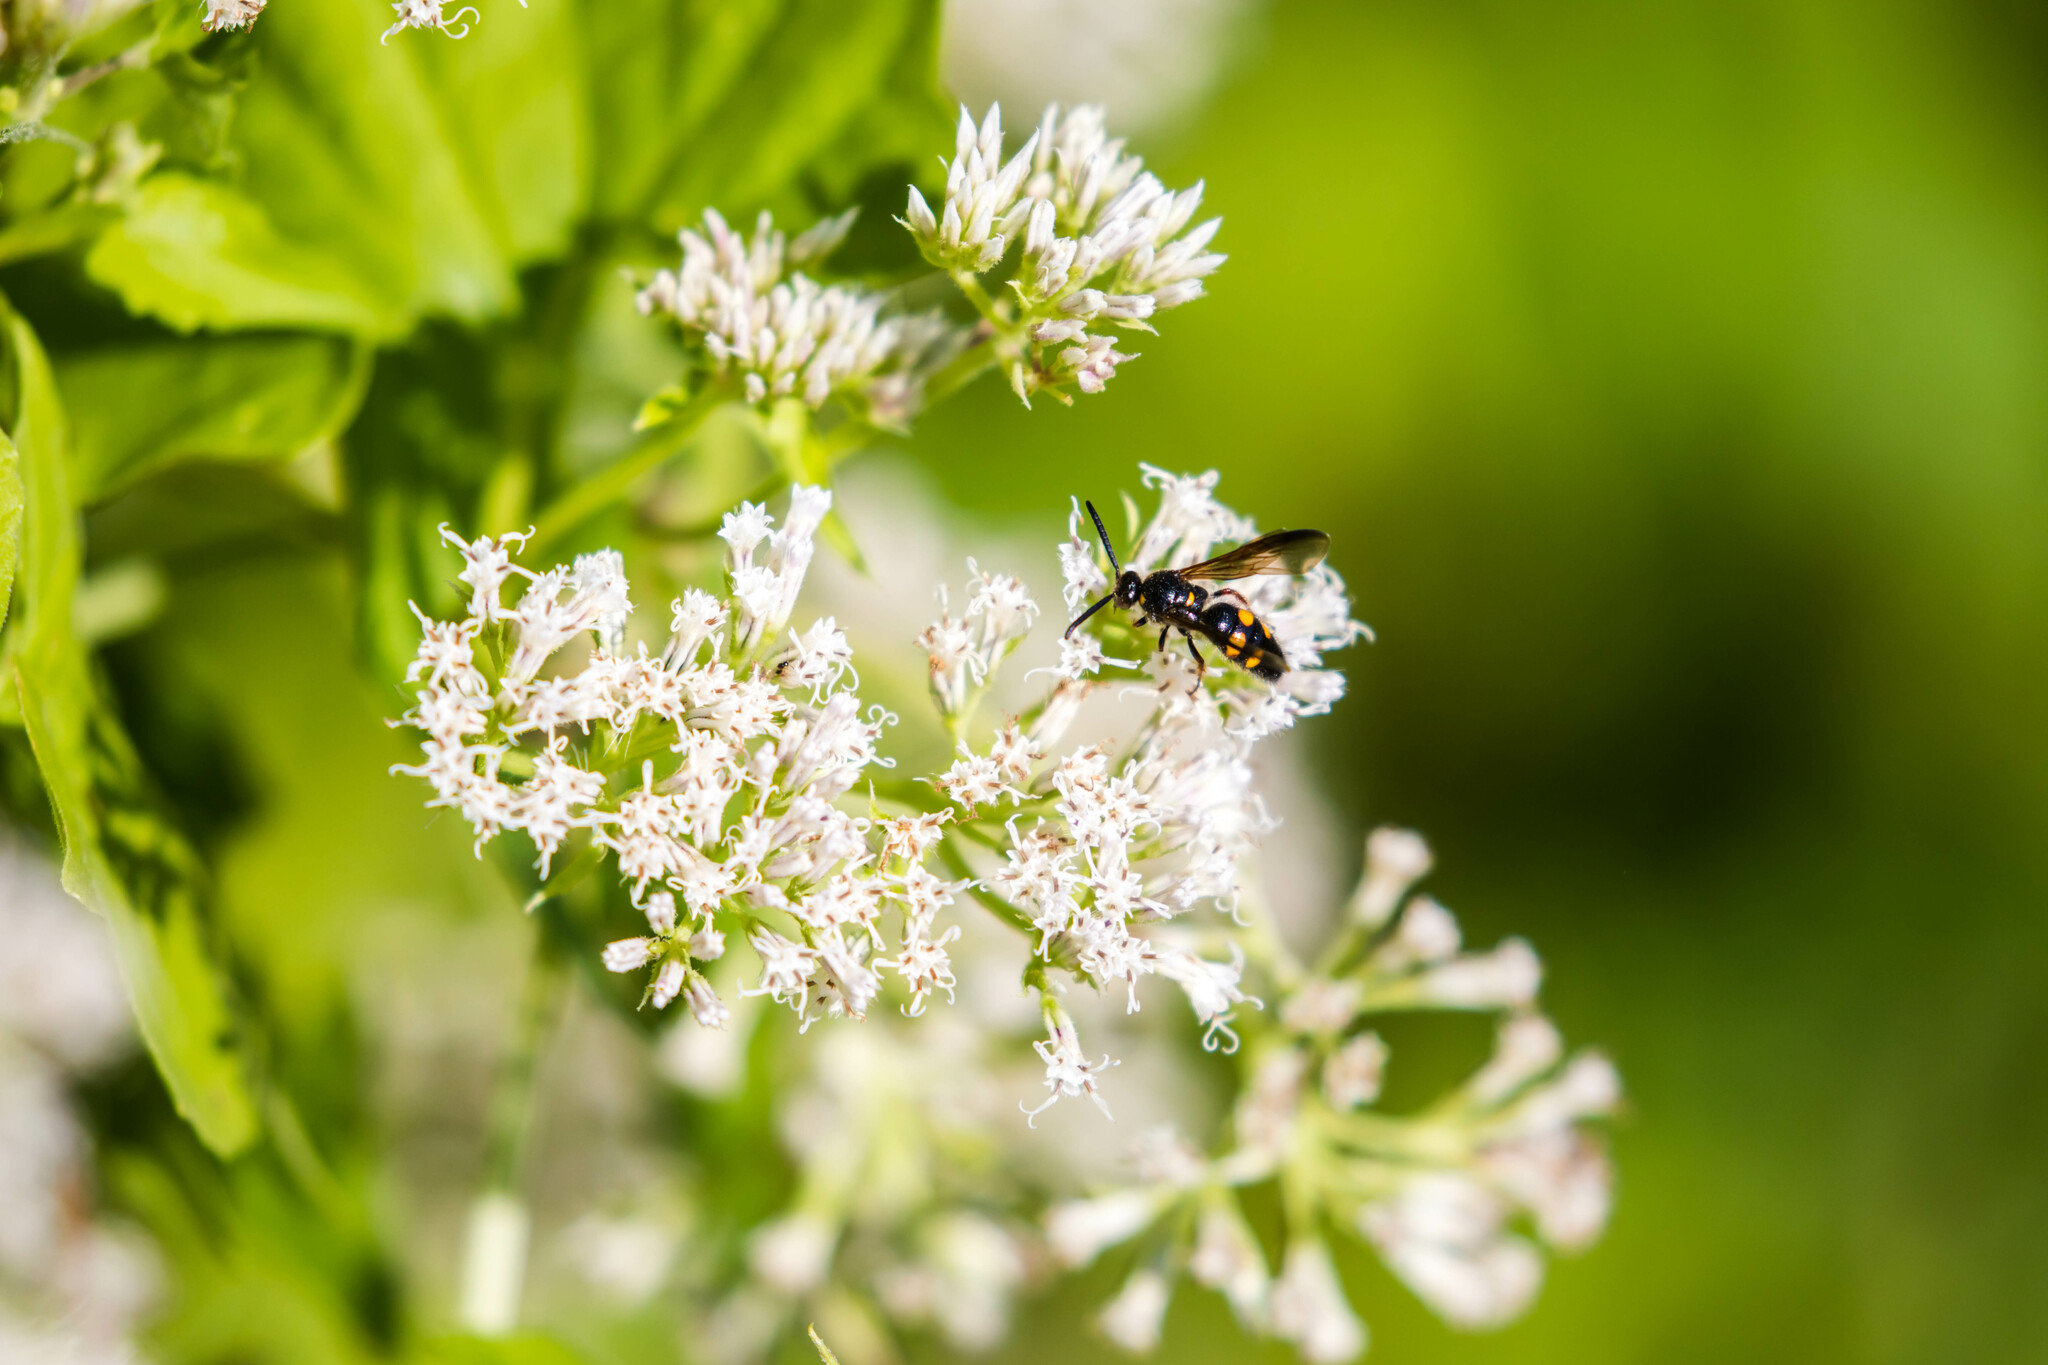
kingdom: Animalia
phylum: Arthropoda
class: Insecta
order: Hymenoptera
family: Scoliidae
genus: Scolia
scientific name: Scolia nobilitata
